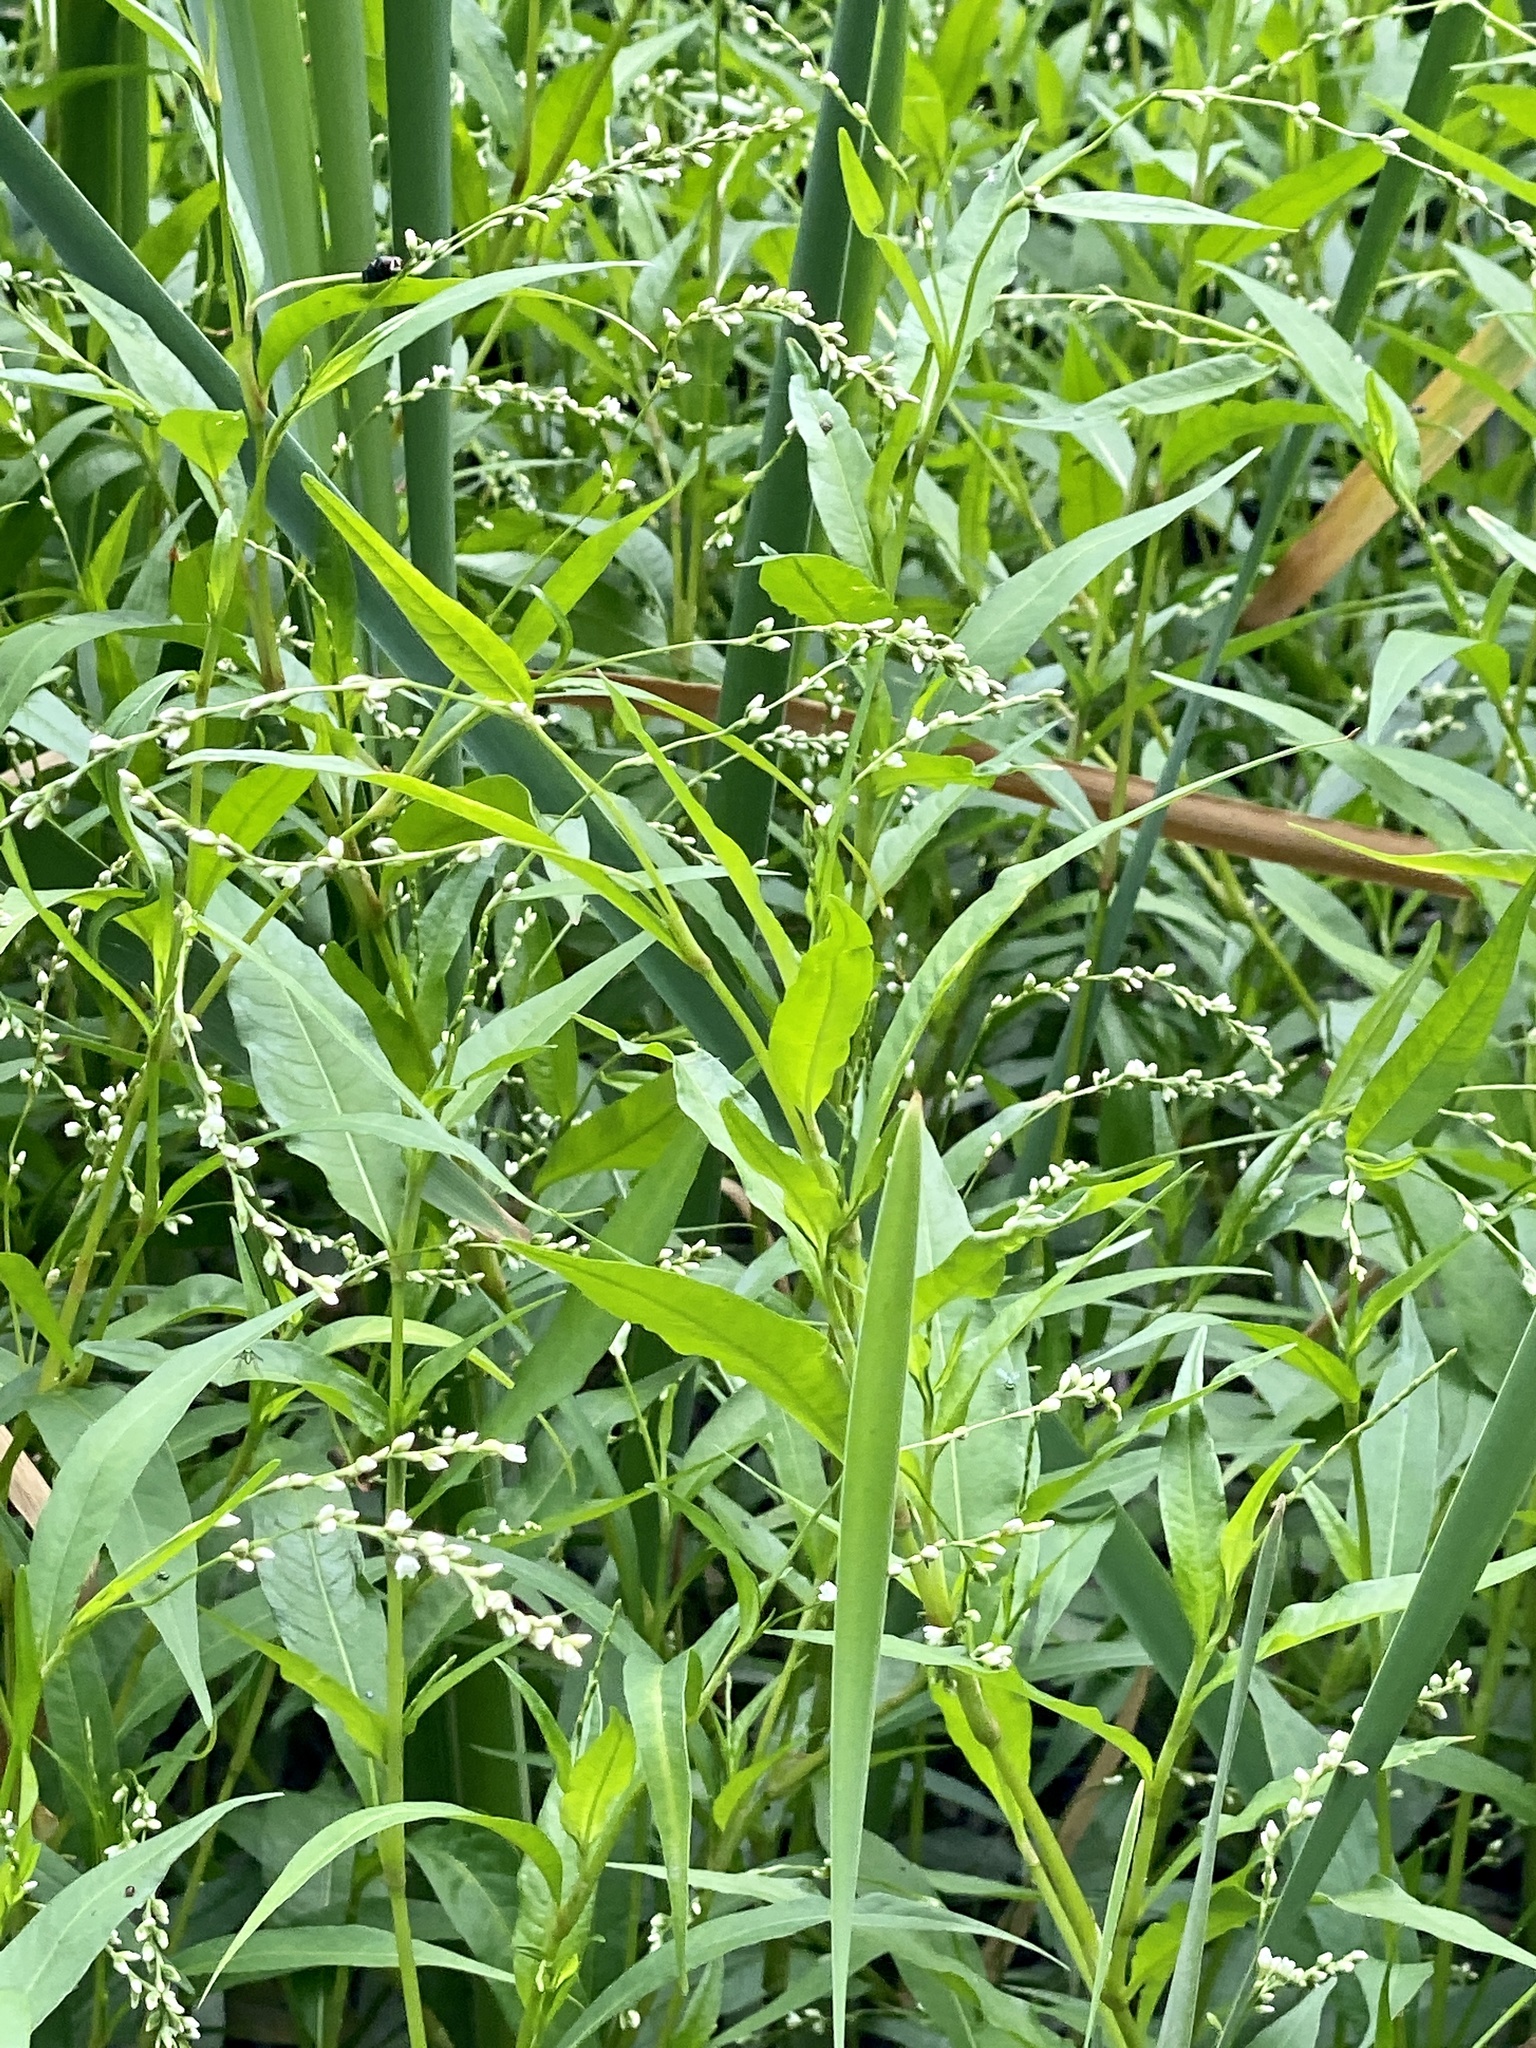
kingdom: Plantae
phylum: Tracheophyta
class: Magnoliopsida
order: Caryophyllales
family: Polygonaceae
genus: Persicaria
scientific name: Persicaria punctata
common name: Dotted smartweed
